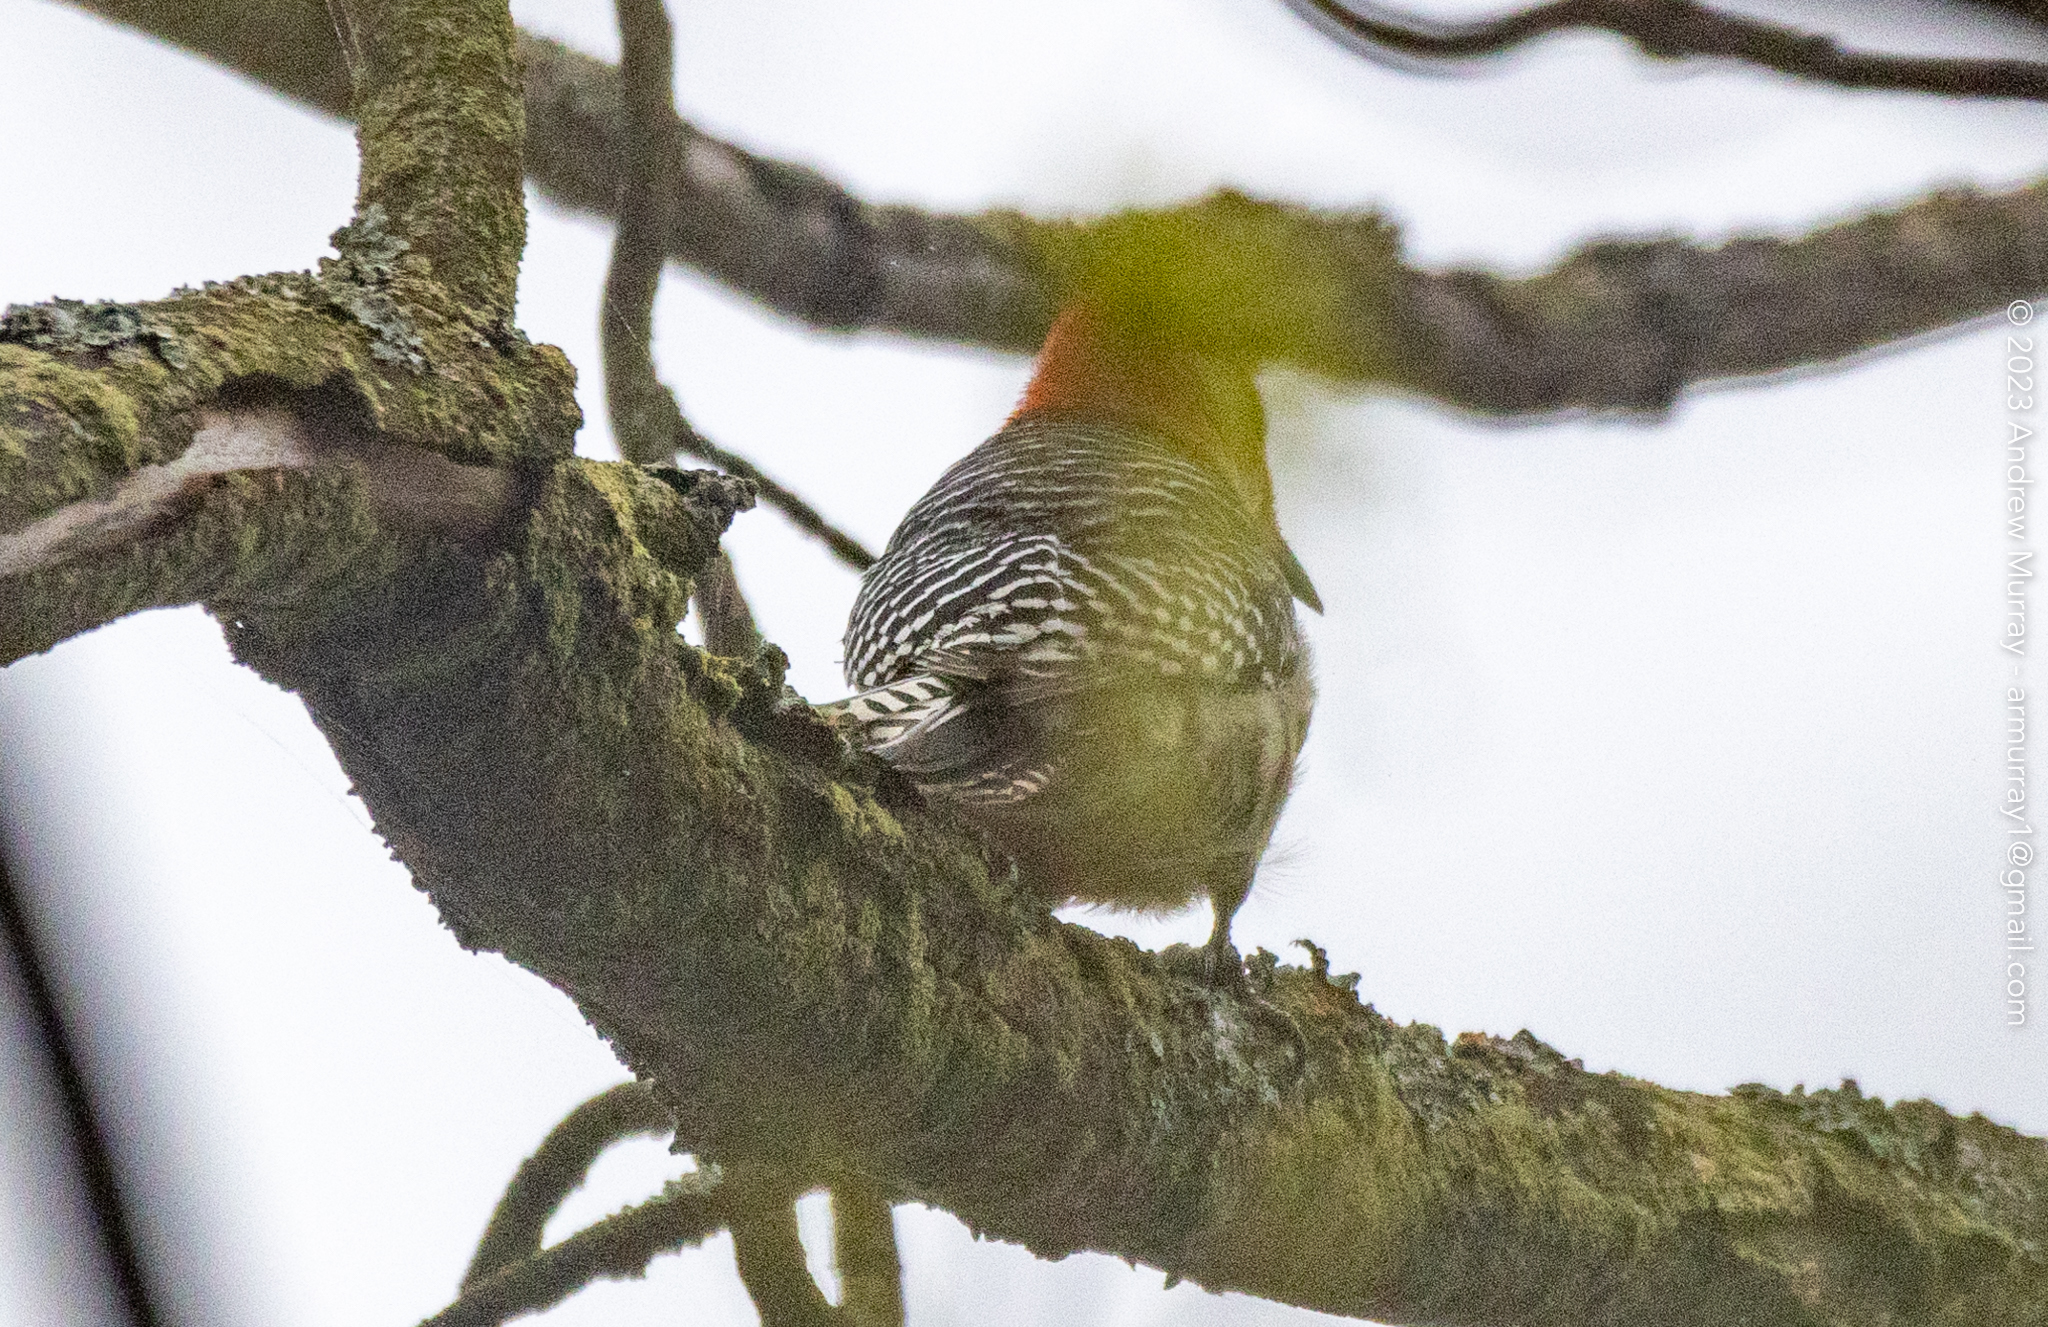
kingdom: Animalia
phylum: Chordata
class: Aves
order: Piciformes
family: Picidae
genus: Melanerpes
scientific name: Melanerpes carolinus
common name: Red-bellied woodpecker
